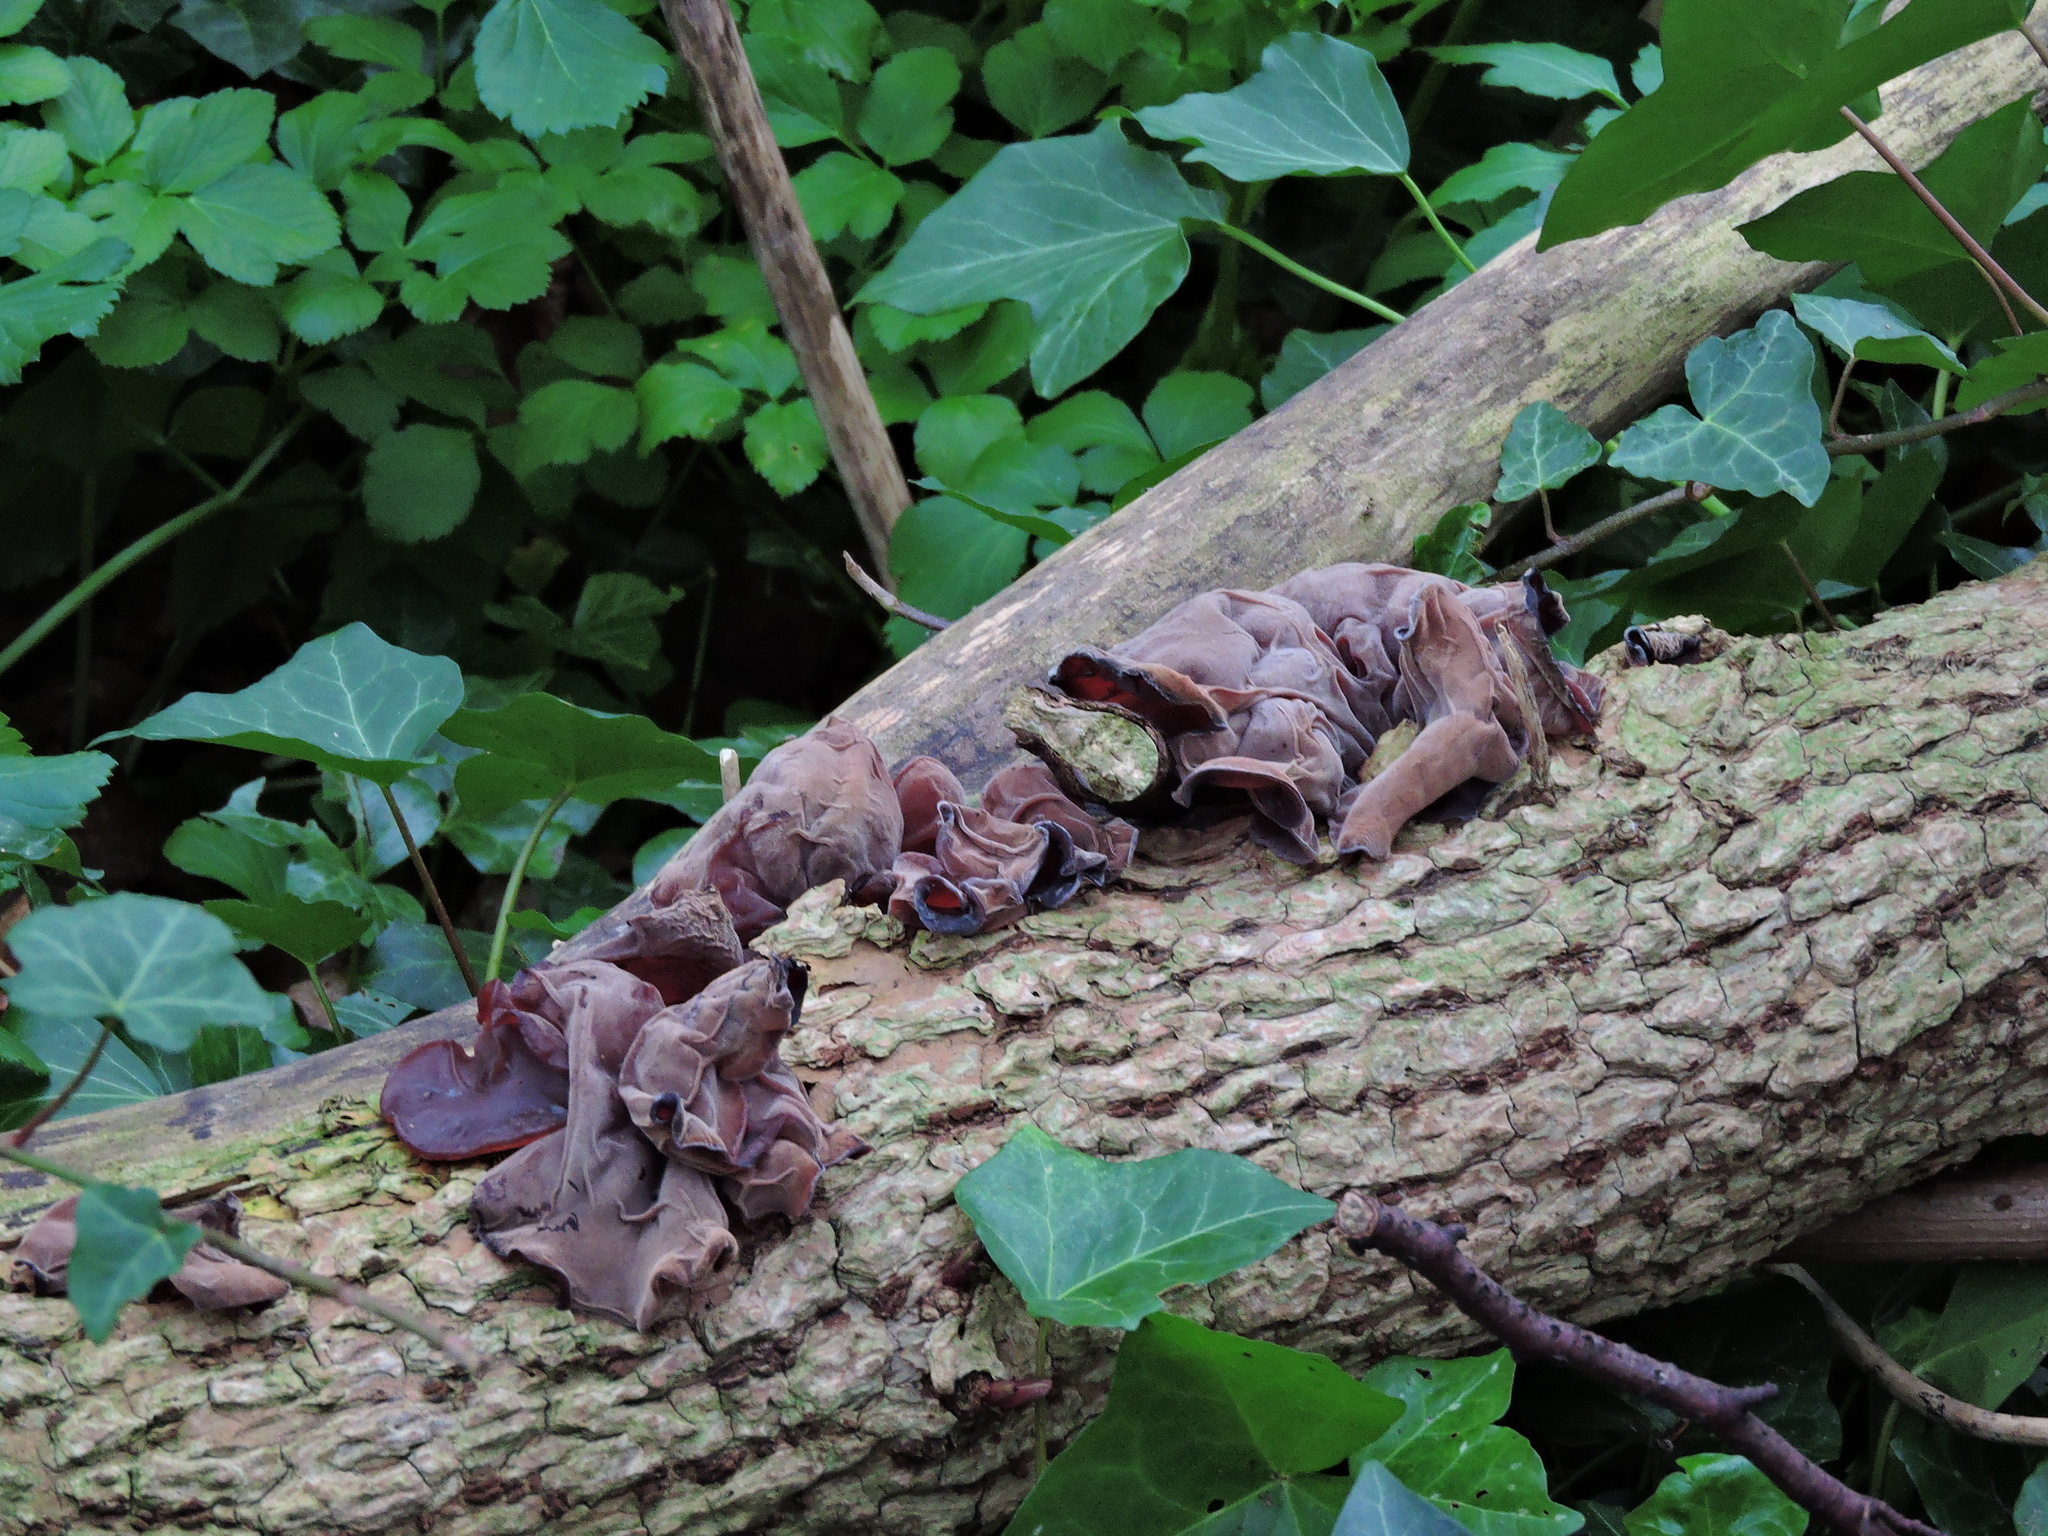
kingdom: Fungi
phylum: Basidiomycota
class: Agaricomycetes
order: Auriculariales
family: Auriculariaceae
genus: Auricularia
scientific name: Auricularia auricula-judae
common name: Jelly ear
